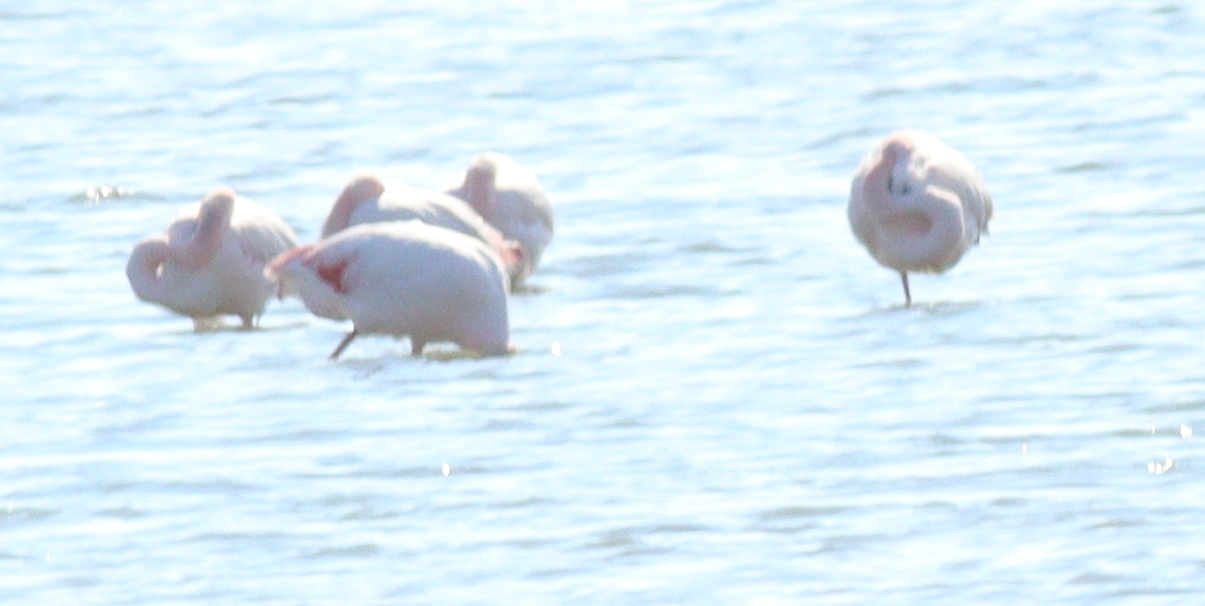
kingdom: Animalia
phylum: Chordata
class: Aves
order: Phoenicopteriformes
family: Phoenicopteridae
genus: Phoenicopterus
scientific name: Phoenicopterus roseus
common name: Greater flamingo
